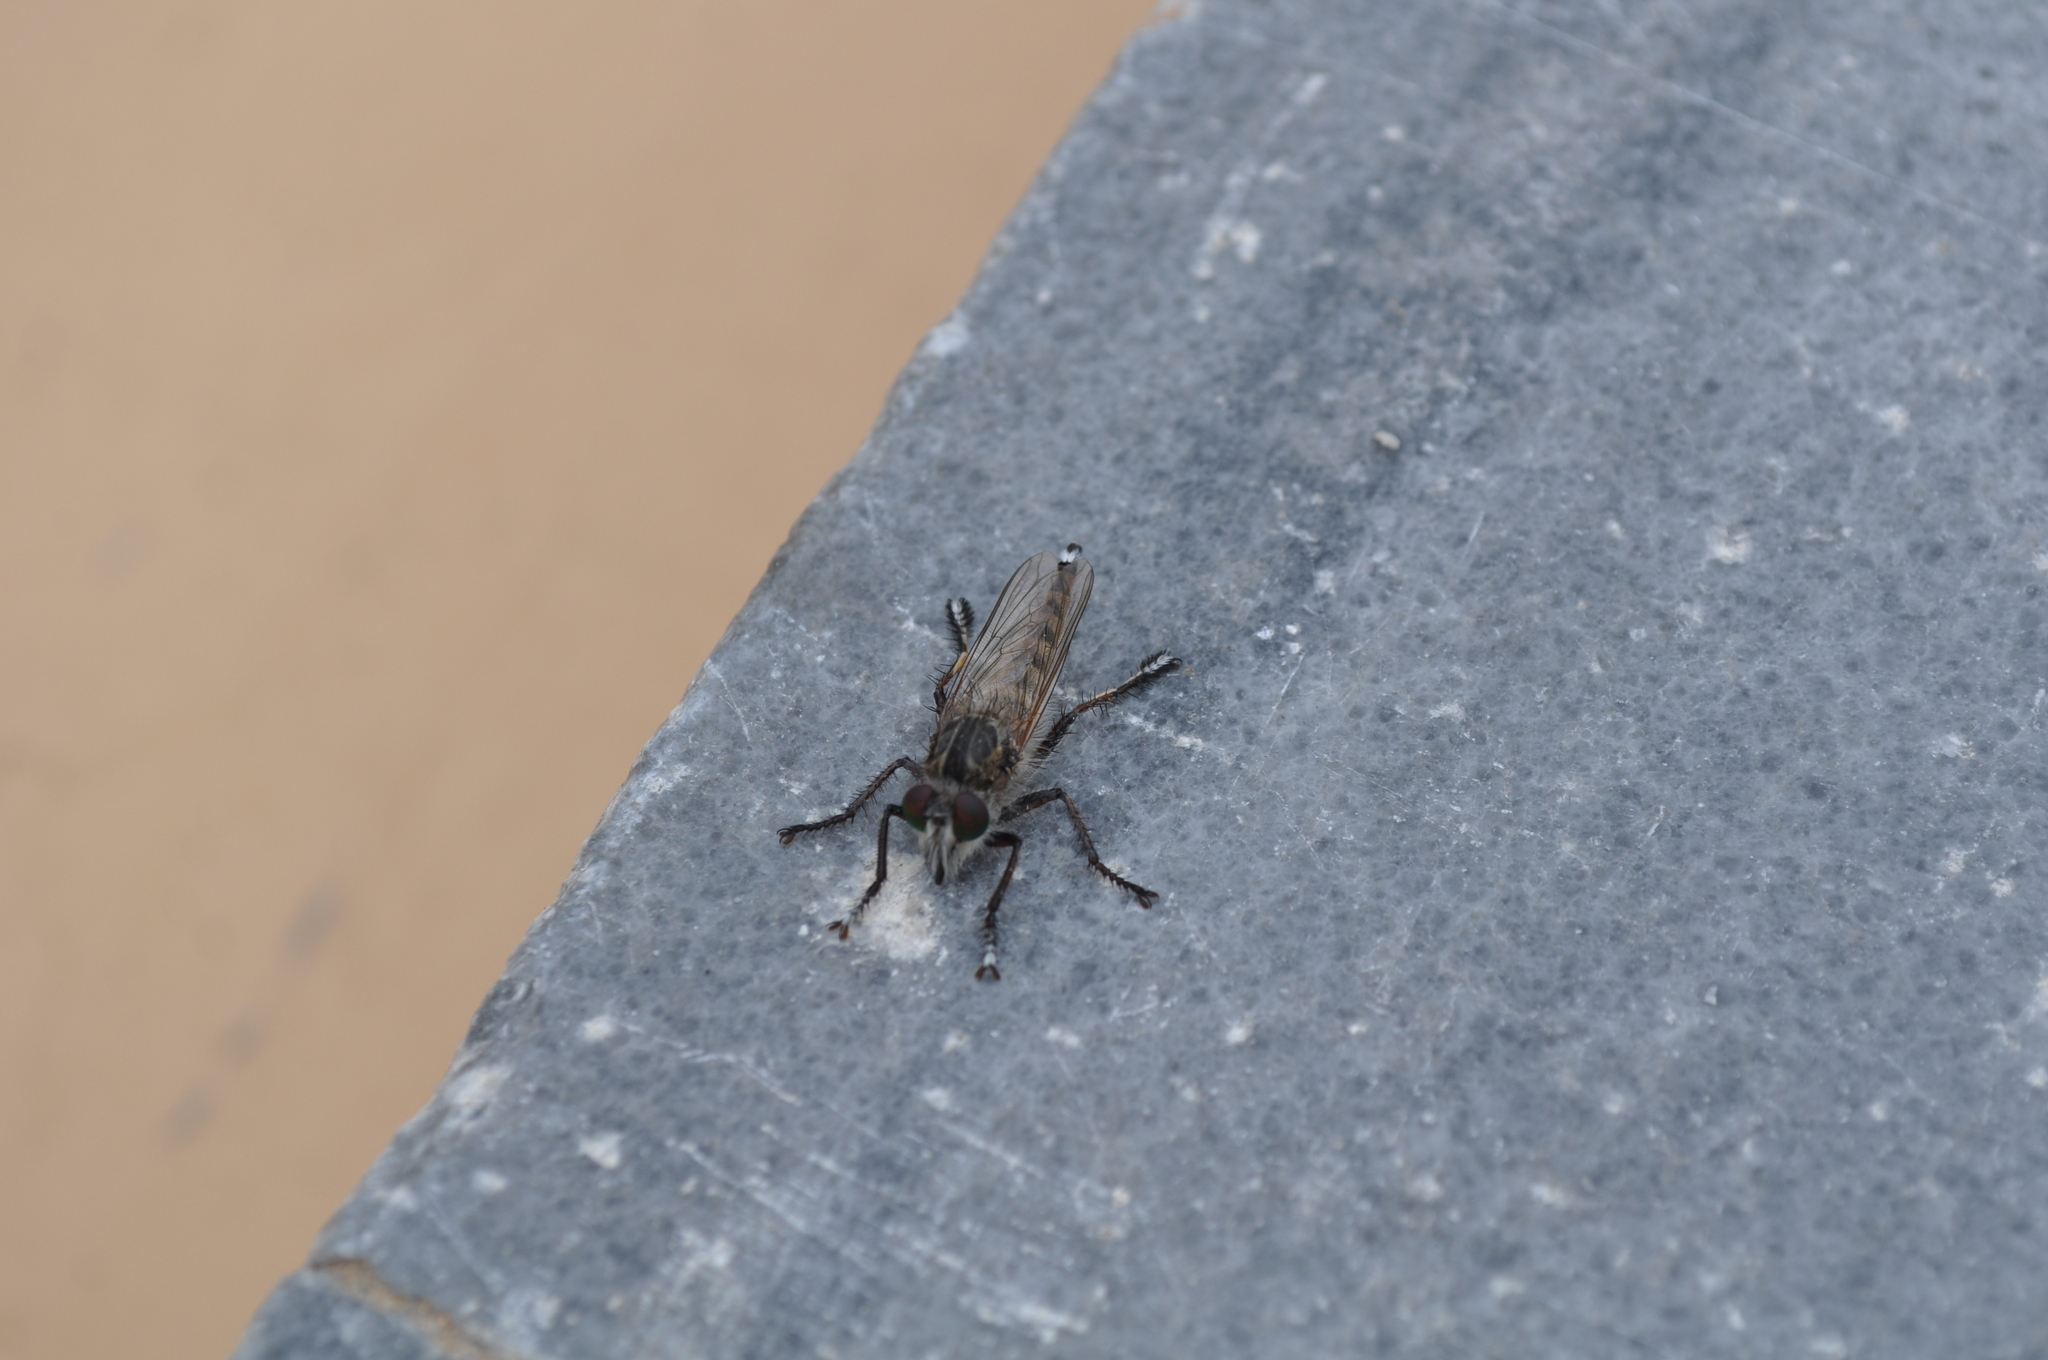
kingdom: Animalia
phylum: Arthropoda
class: Insecta
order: Diptera
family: Asilidae
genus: Promachus
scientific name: Promachus vexator
